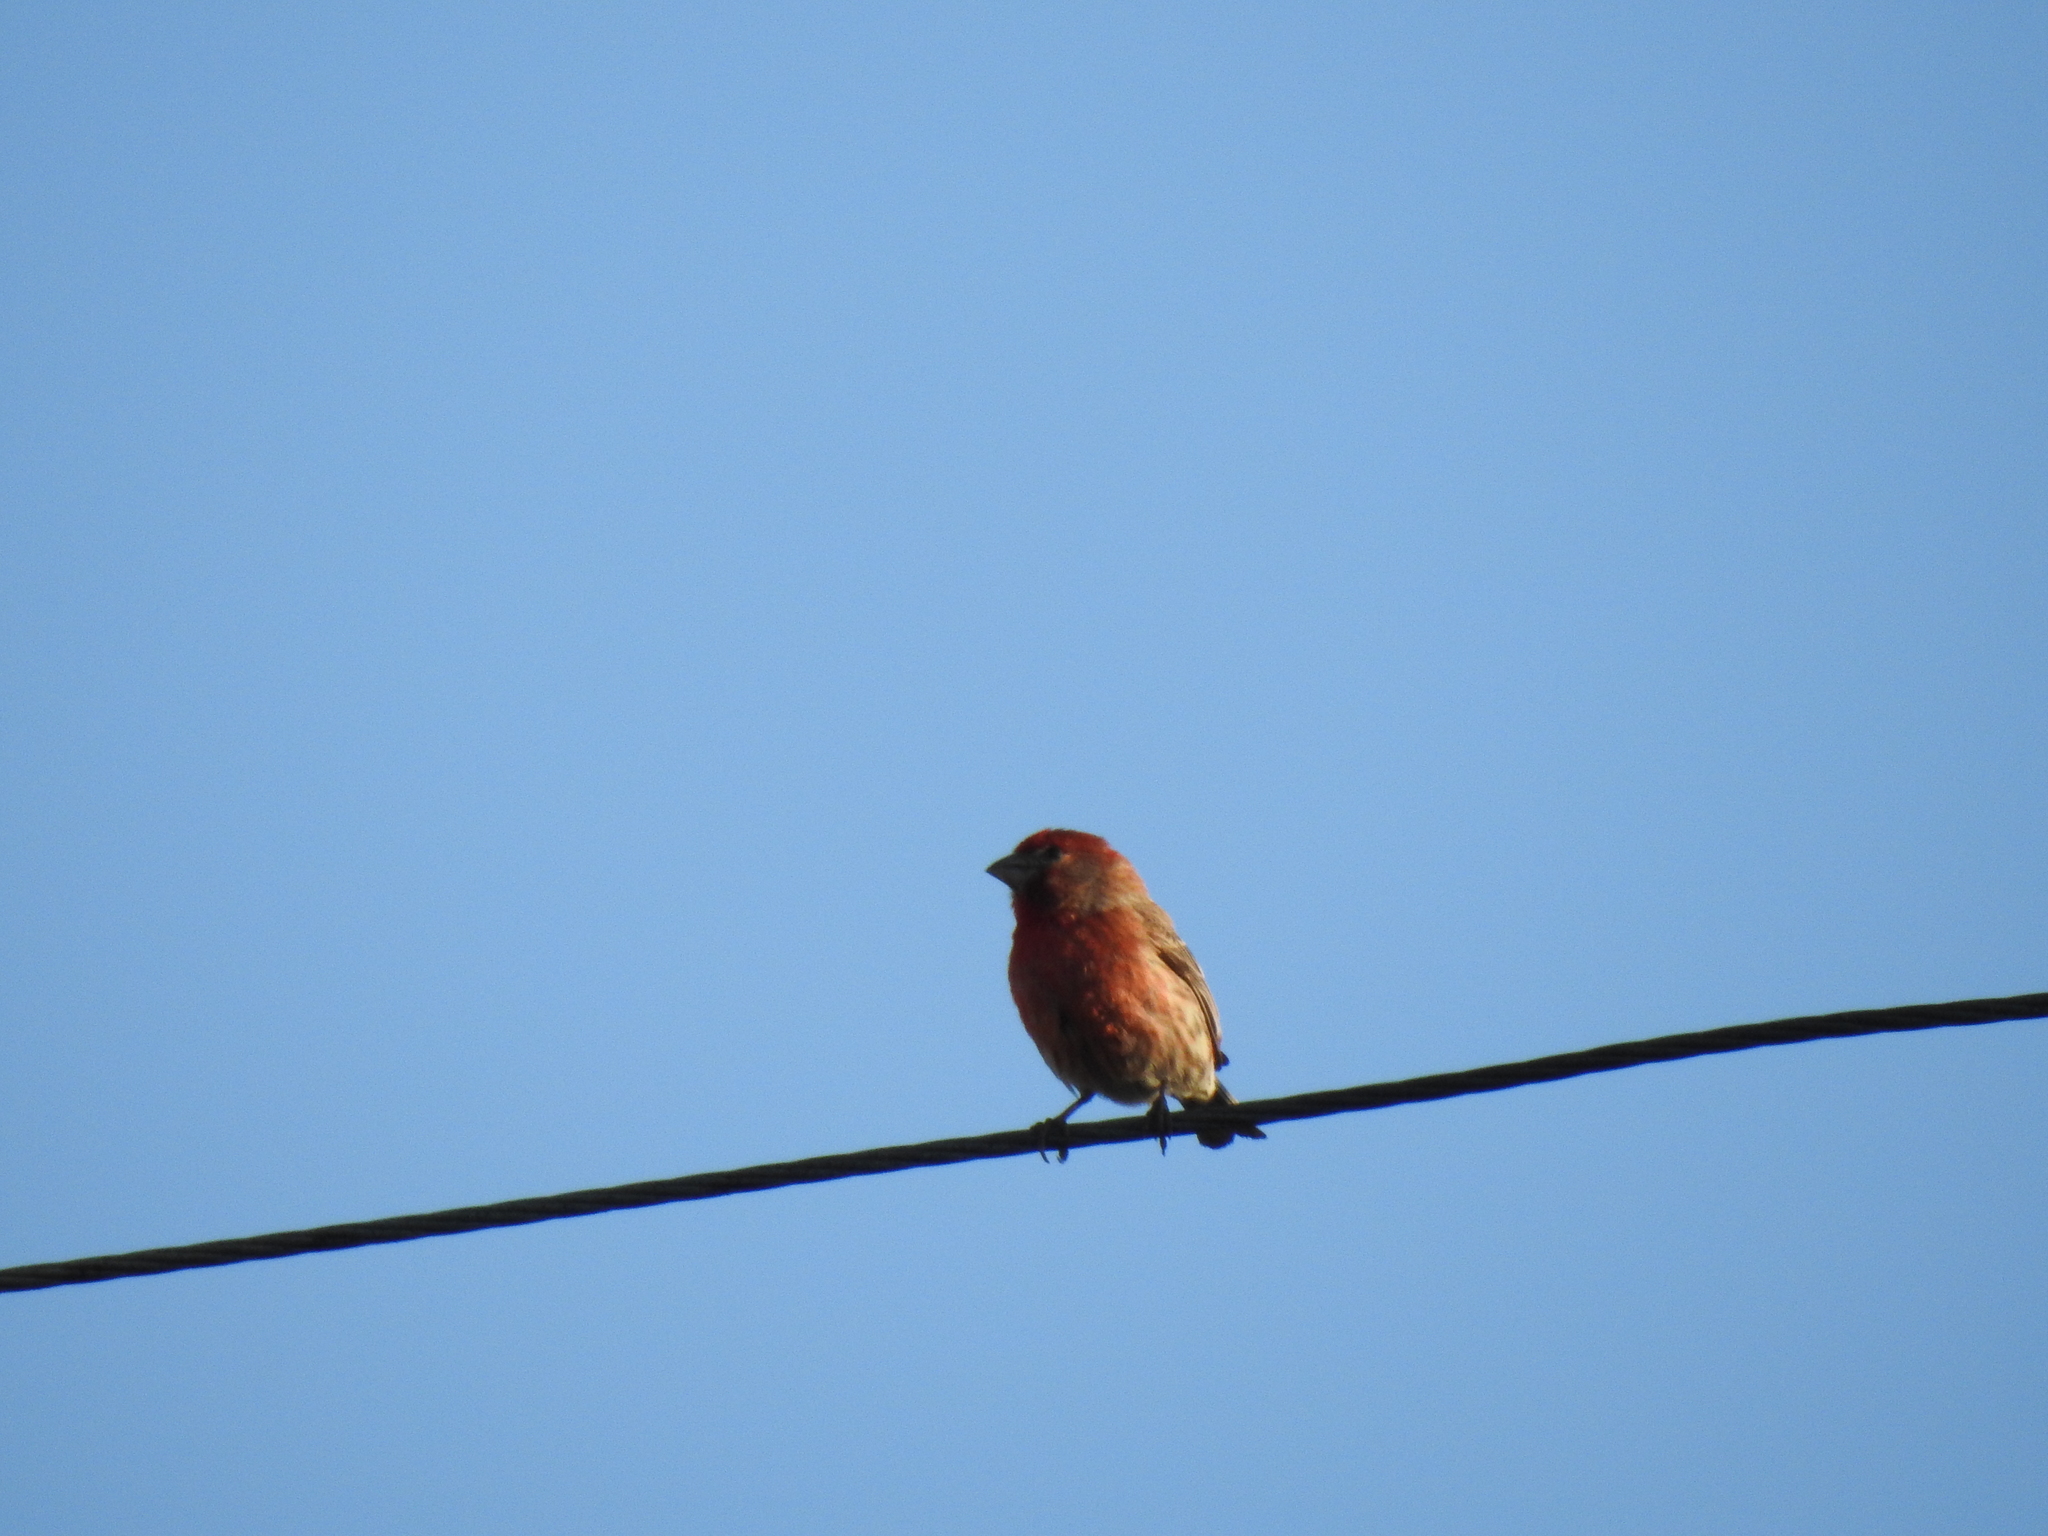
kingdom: Animalia
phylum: Chordata
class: Aves
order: Passeriformes
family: Fringillidae
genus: Haemorhous
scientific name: Haemorhous mexicanus
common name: House finch
